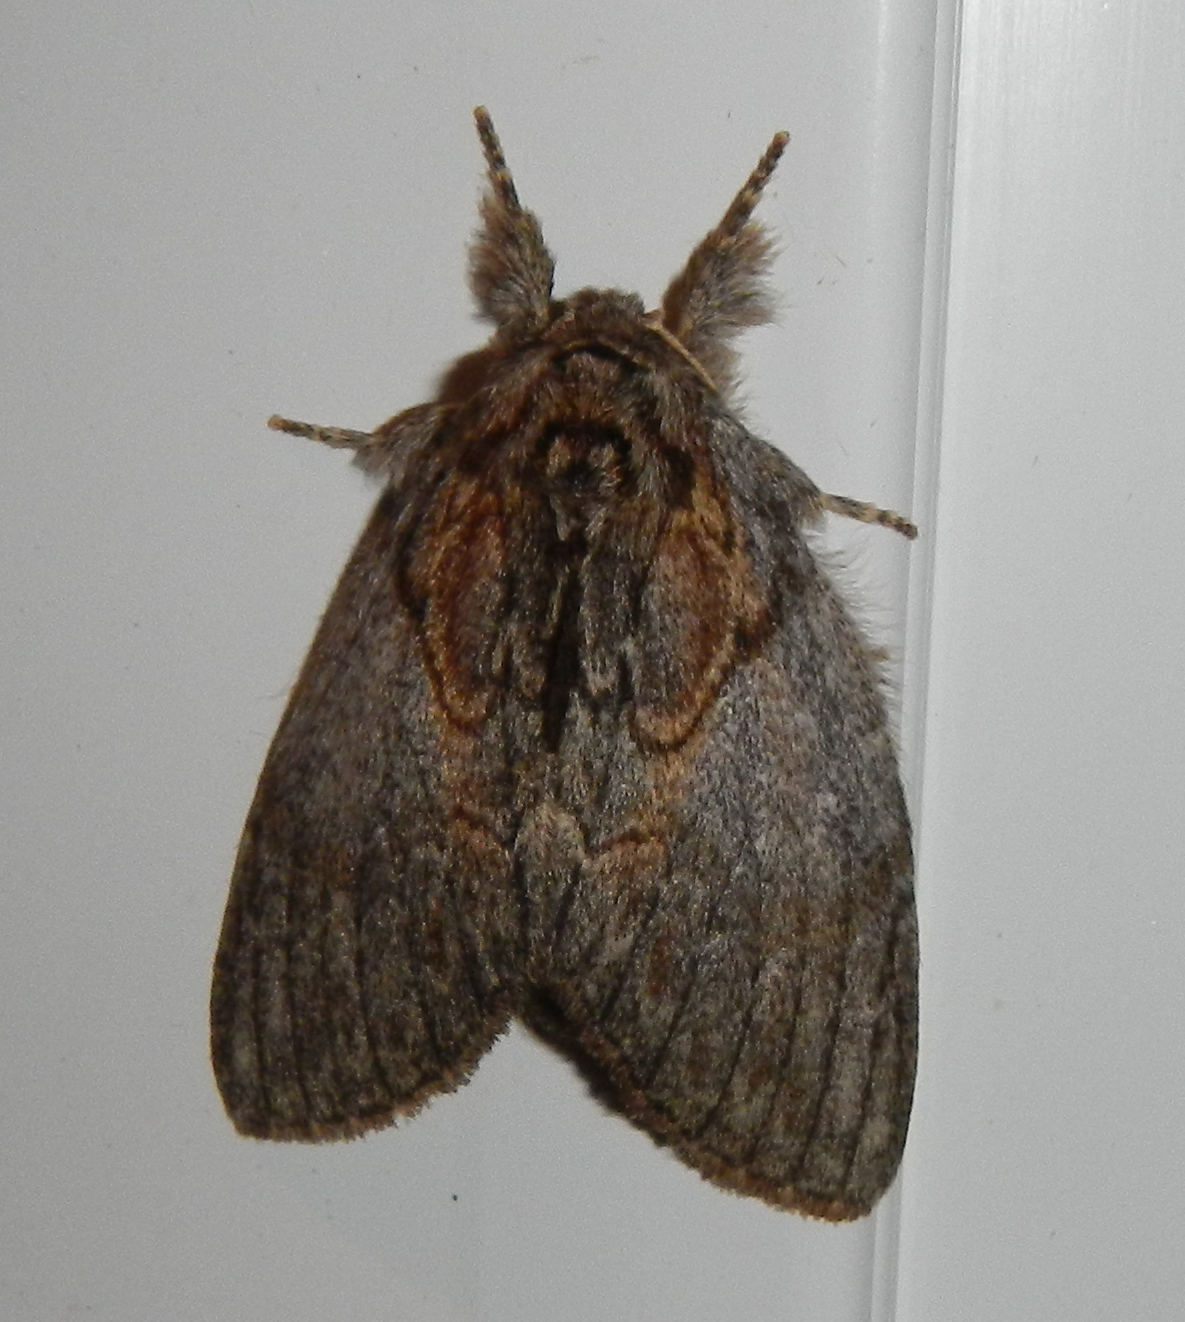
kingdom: Animalia
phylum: Arthropoda
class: Insecta
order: Lepidoptera
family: Notodontidae
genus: Peridea
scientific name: Peridea basitriens
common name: Oval-based prominent
